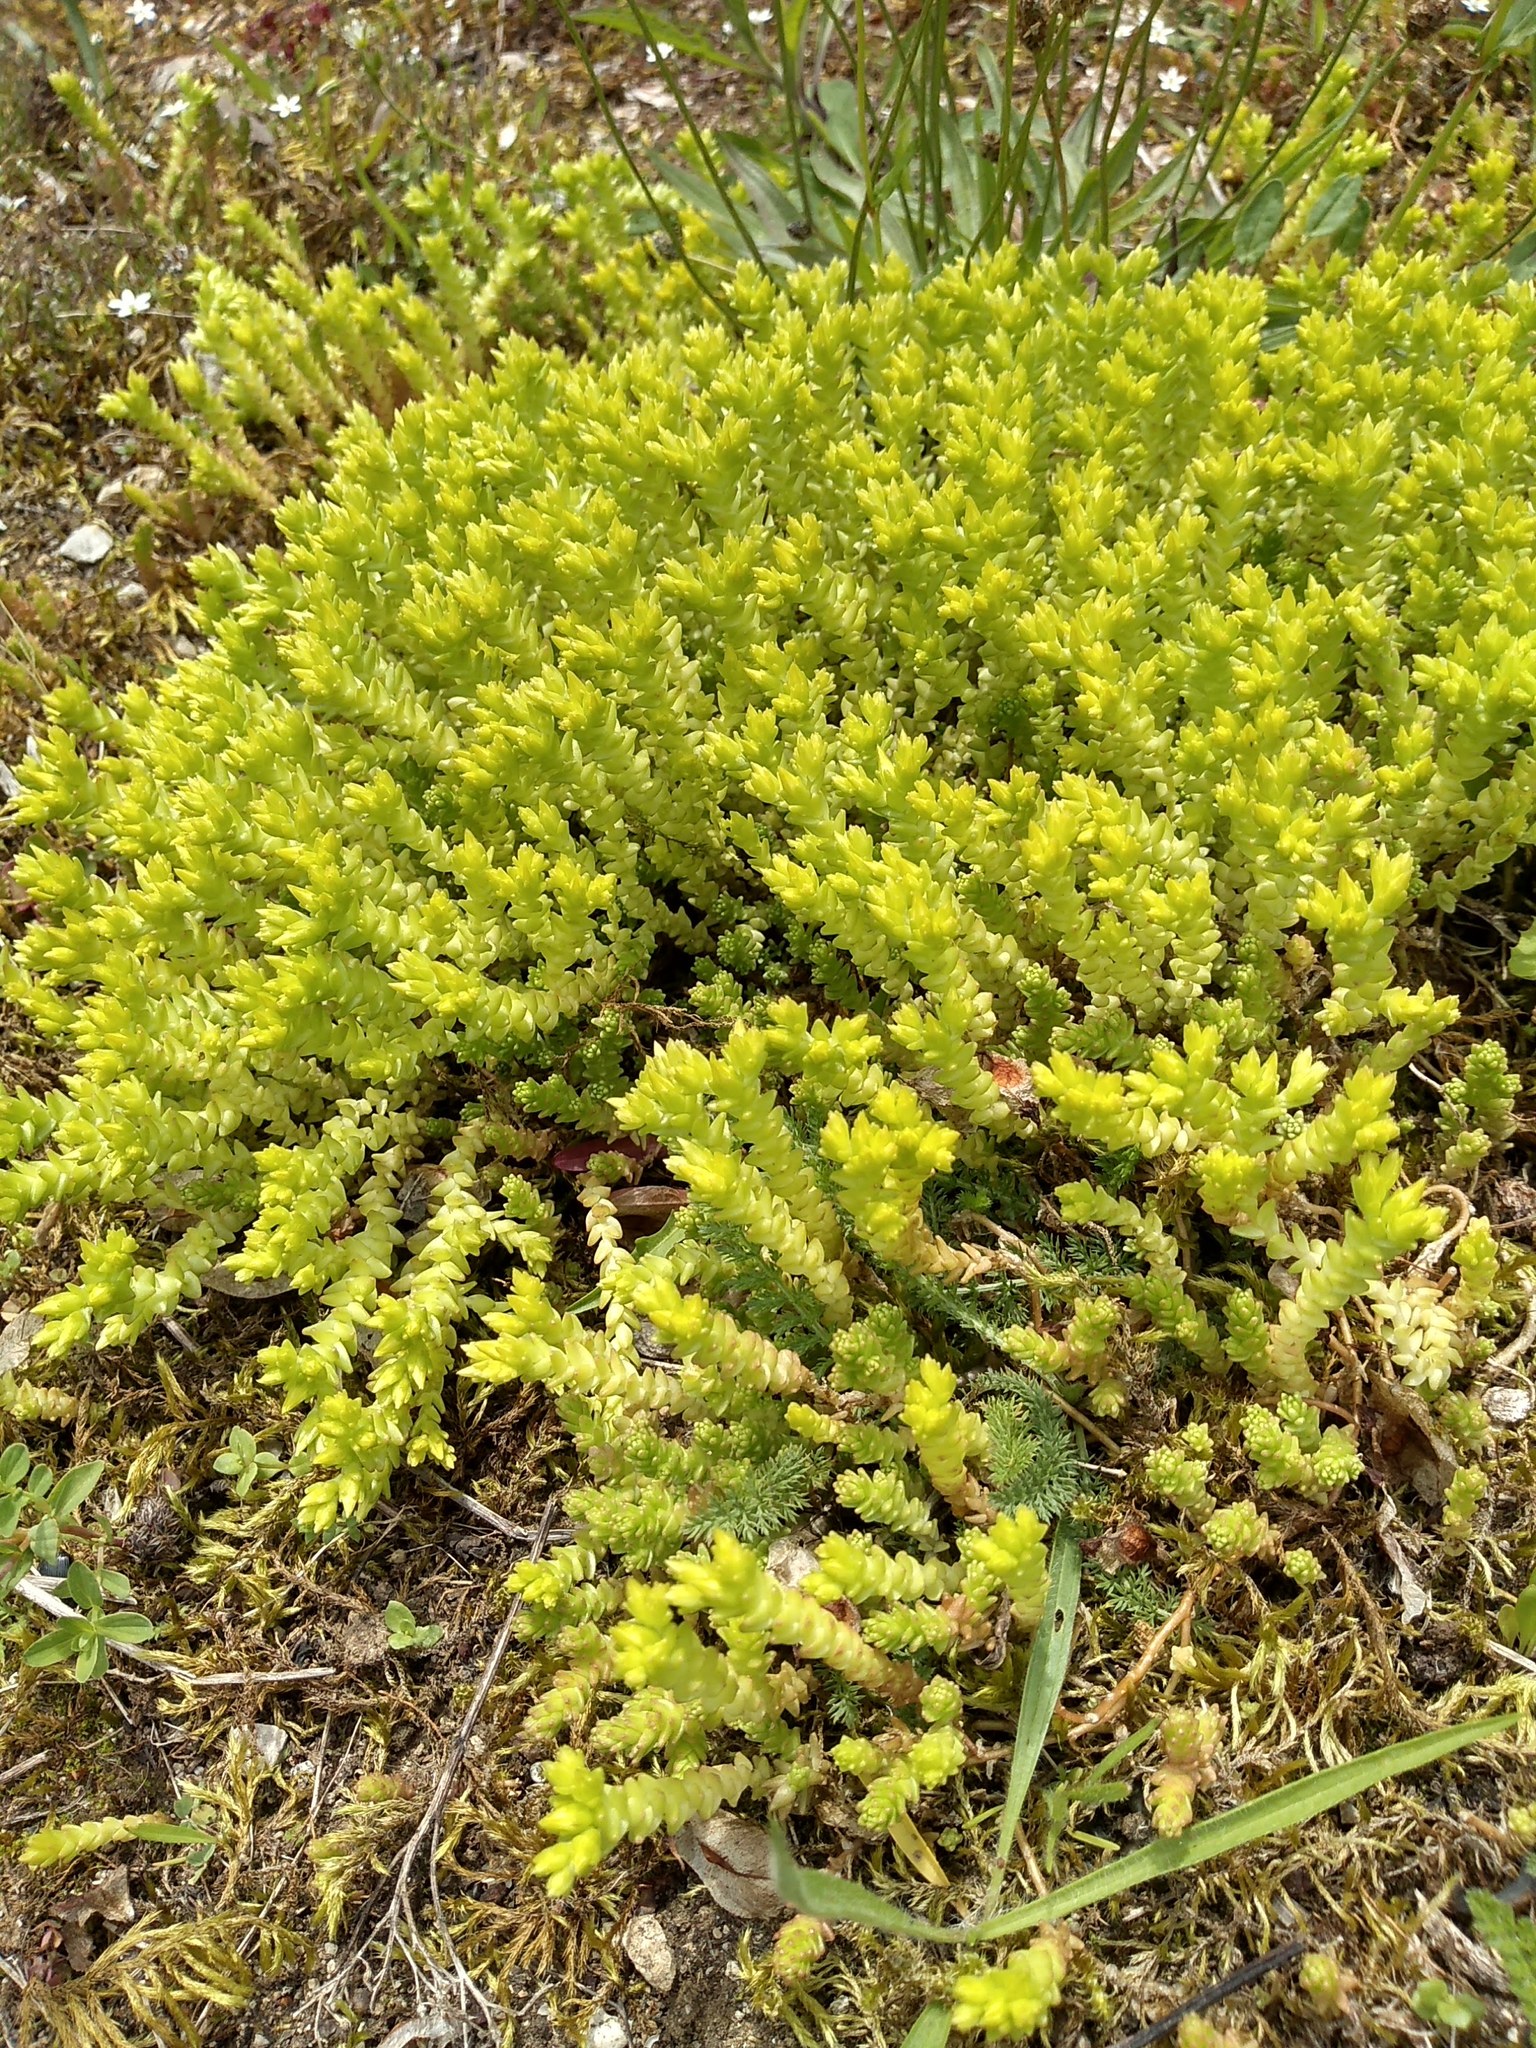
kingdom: Plantae
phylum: Tracheophyta
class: Magnoliopsida
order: Saxifragales
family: Crassulaceae
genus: Sedum
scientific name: Sedum acre
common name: Biting stonecrop
